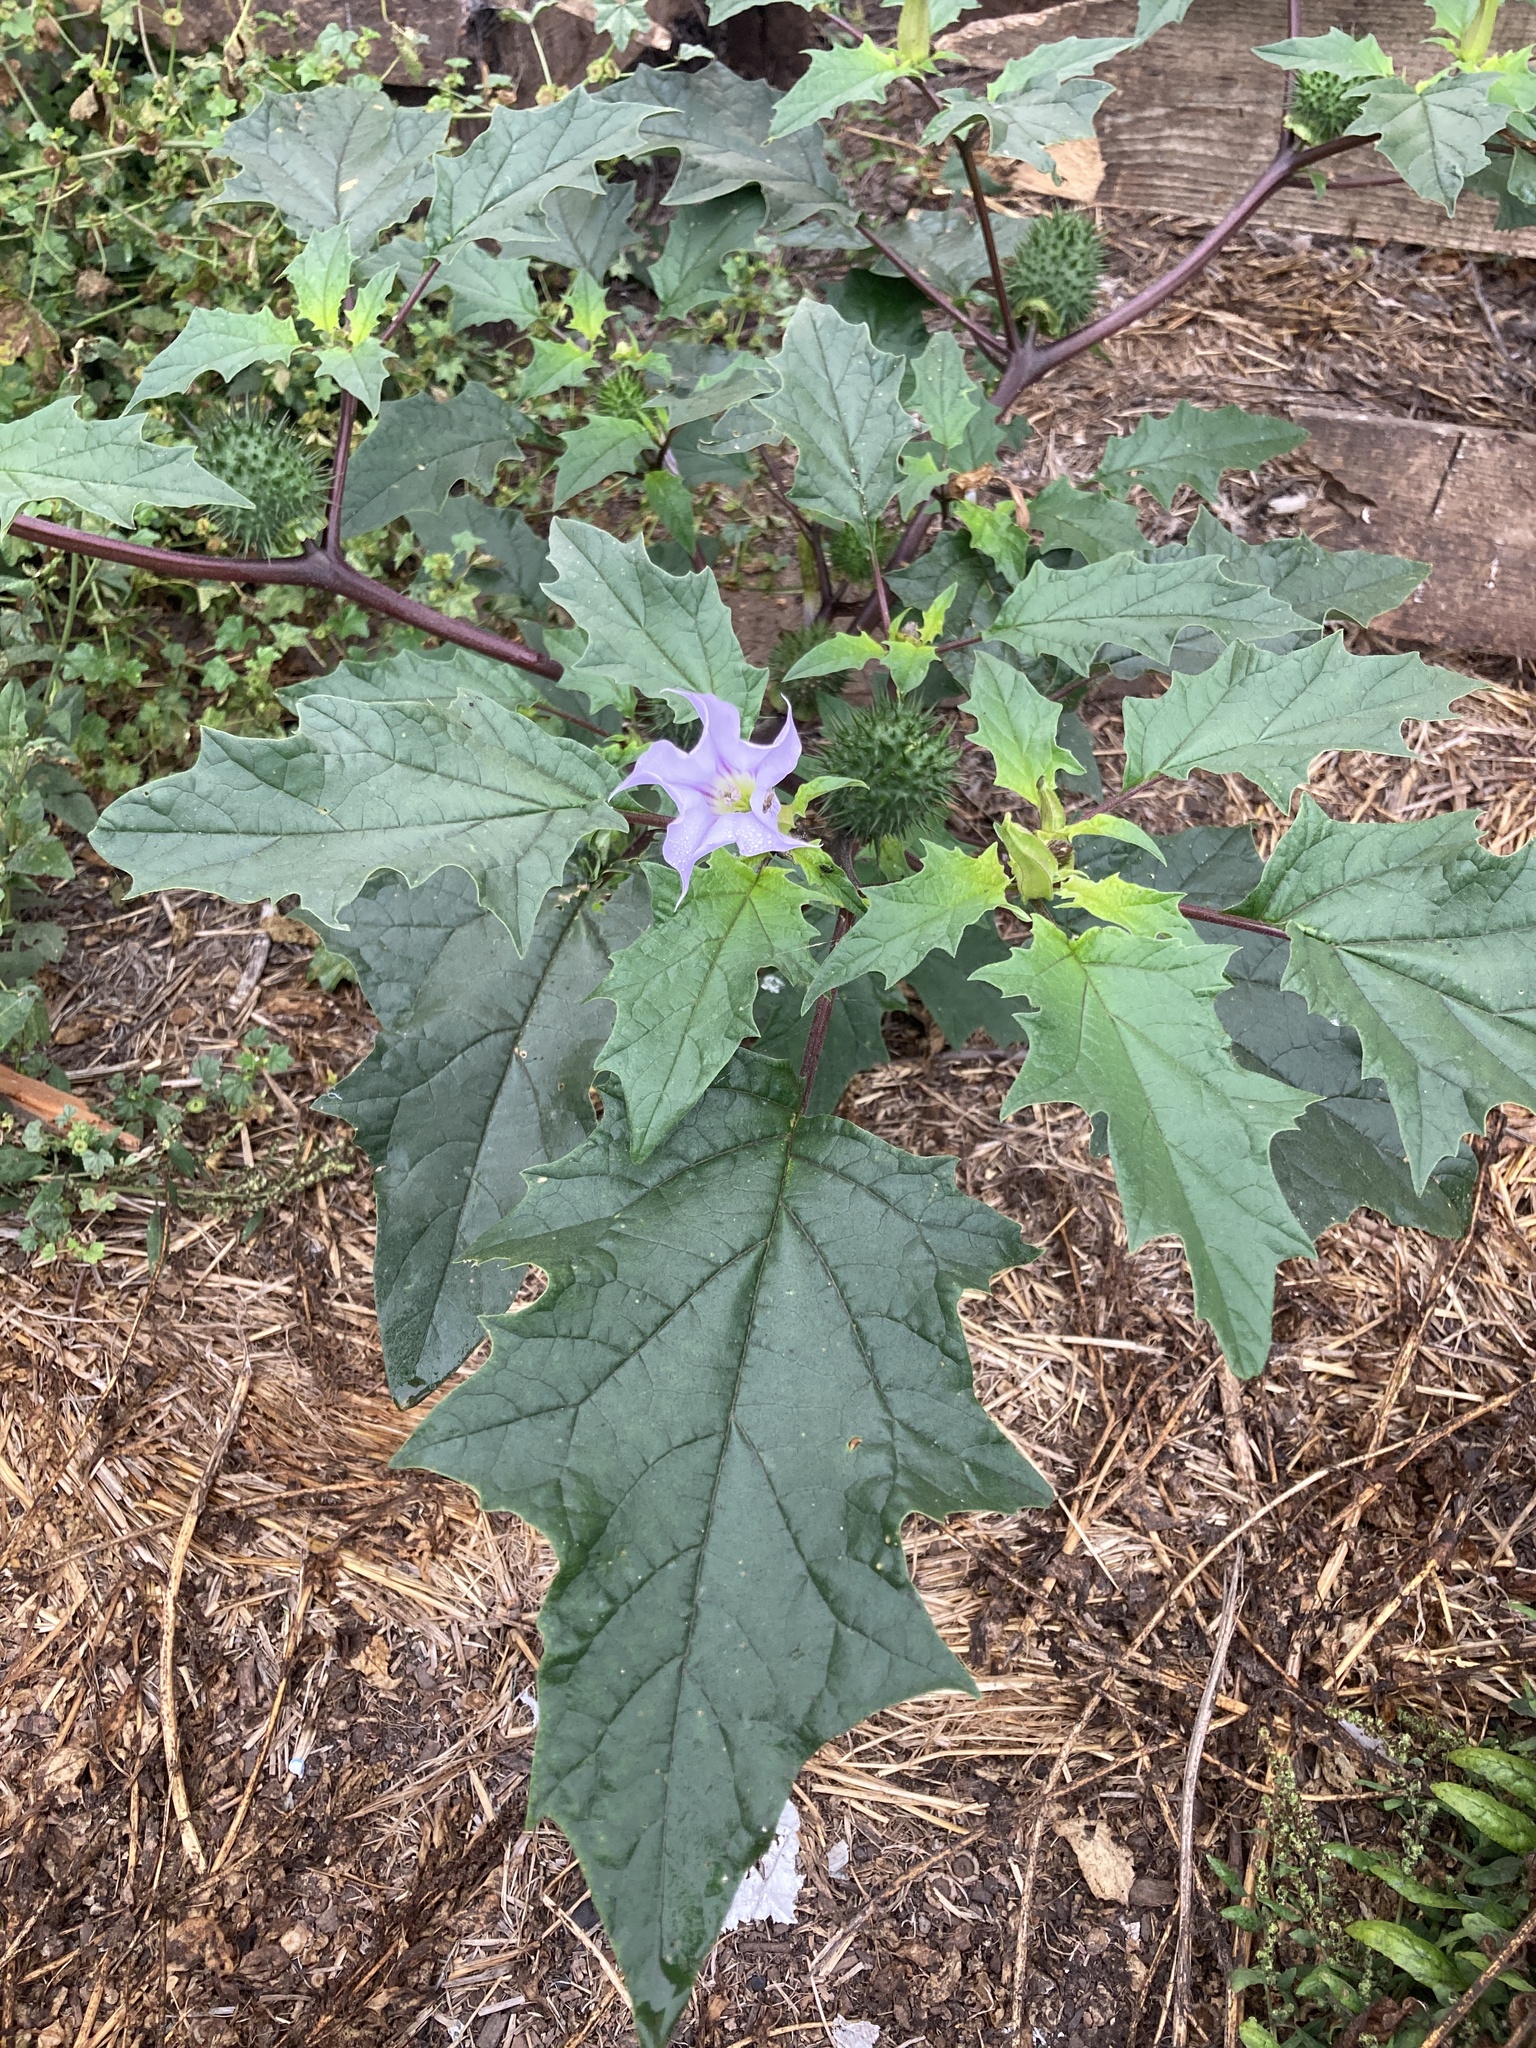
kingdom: Plantae
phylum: Tracheophyta
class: Magnoliopsida
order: Solanales
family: Solanaceae
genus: Datura
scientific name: Datura stramonium
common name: Thorn-apple
